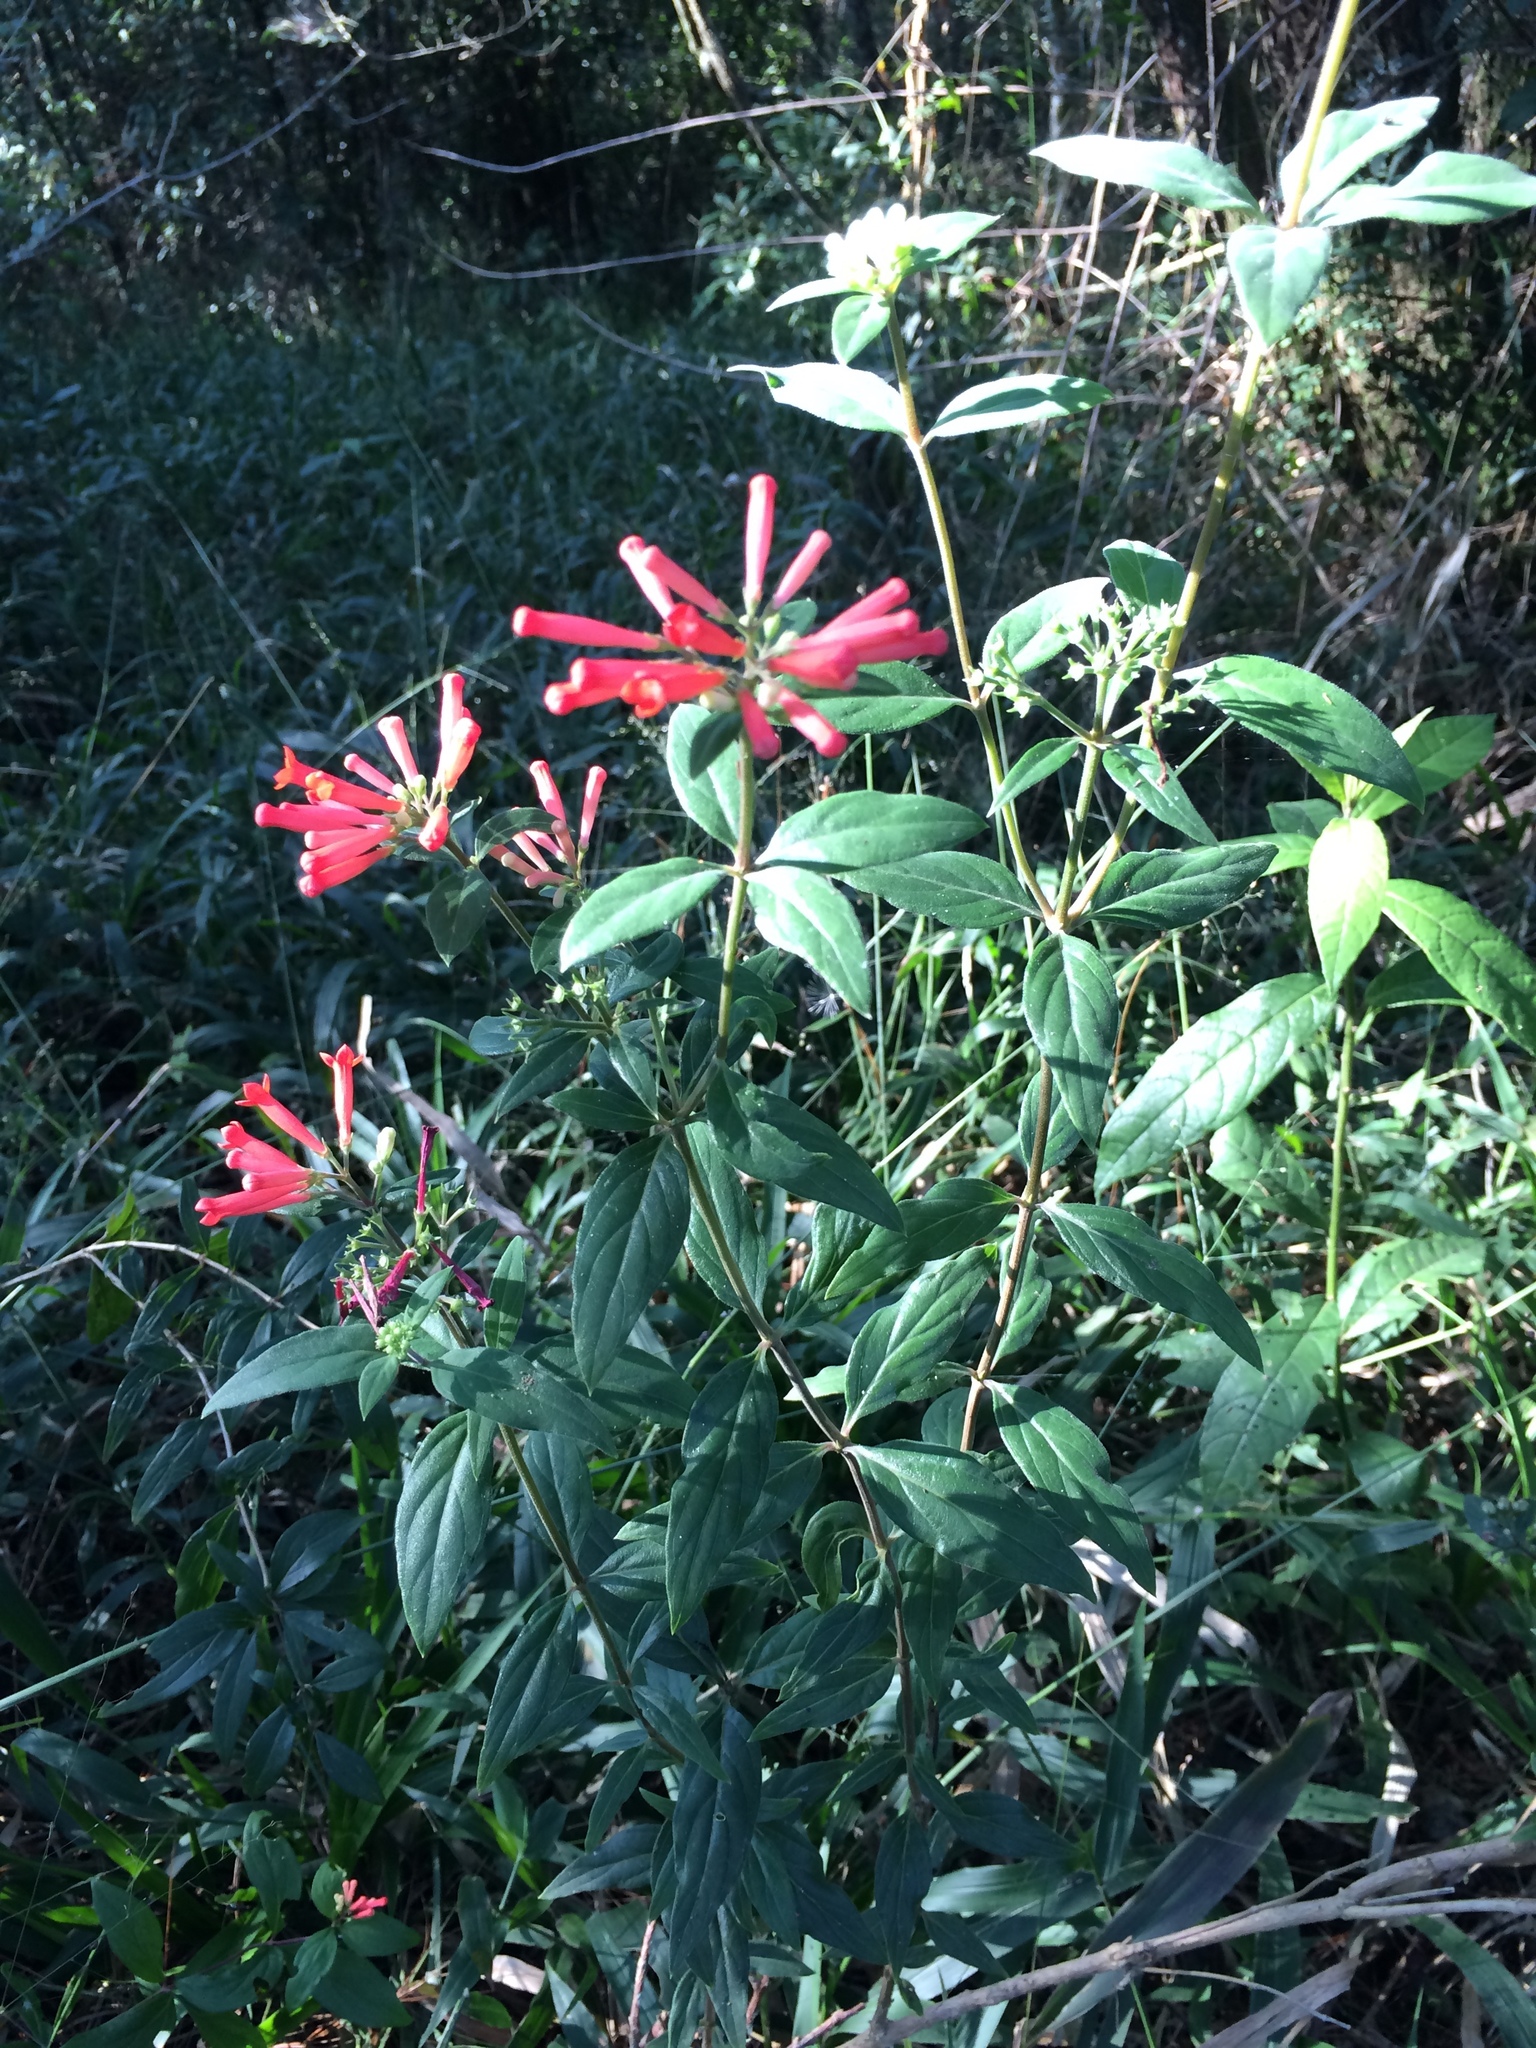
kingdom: Plantae
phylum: Tracheophyta
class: Magnoliopsida
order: Gentianales
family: Rubiaceae
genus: Bouvardia
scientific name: Bouvardia ternifolia
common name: Scarlet bouvardia
